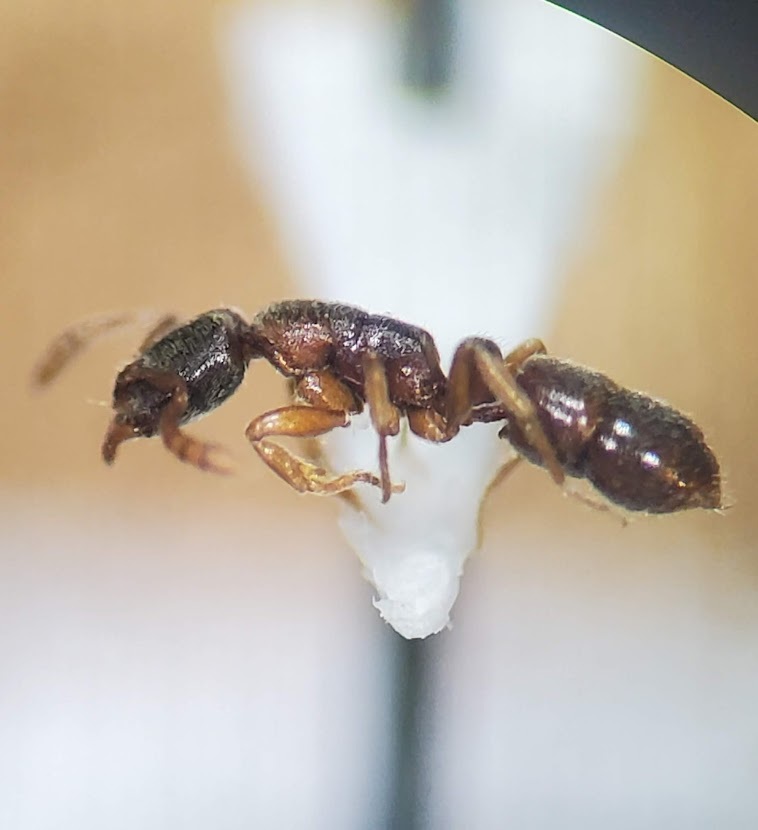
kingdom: Animalia
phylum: Arthropoda
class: Insecta
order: Hymenoptera
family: Formicidae
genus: Hypoponera
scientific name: Hypoponera opacior
